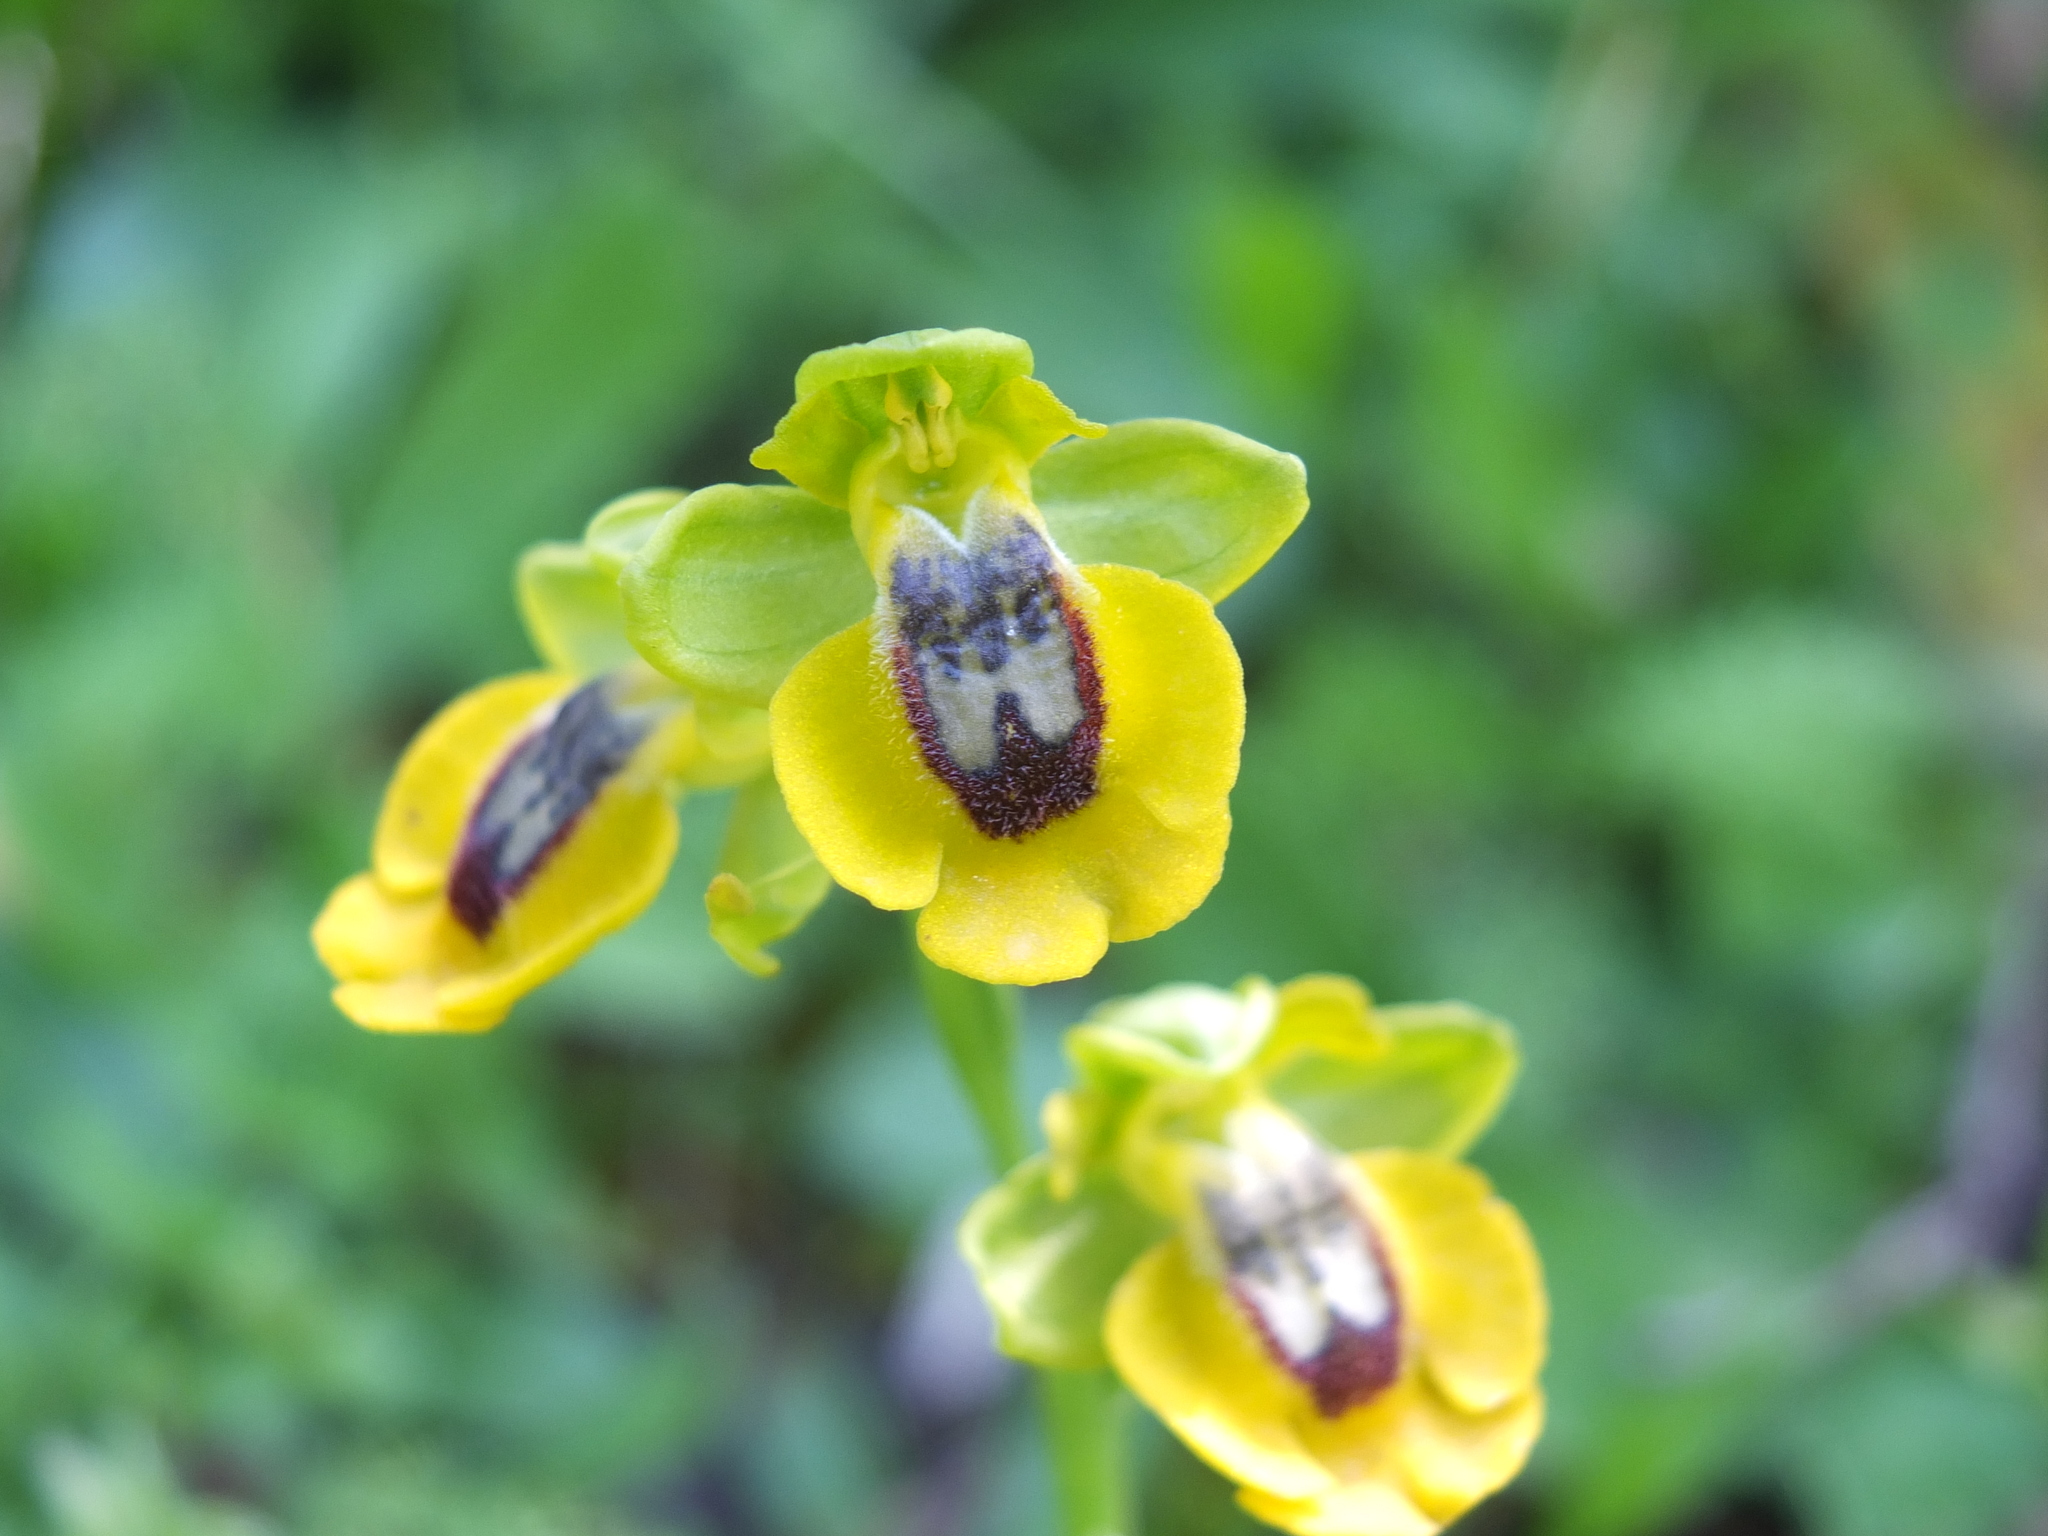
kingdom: Plantae
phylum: Tracheophyta
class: Liliopsida
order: Asparagales
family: Orchidaceae
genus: Ophrys
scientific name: Ophrys lutea
